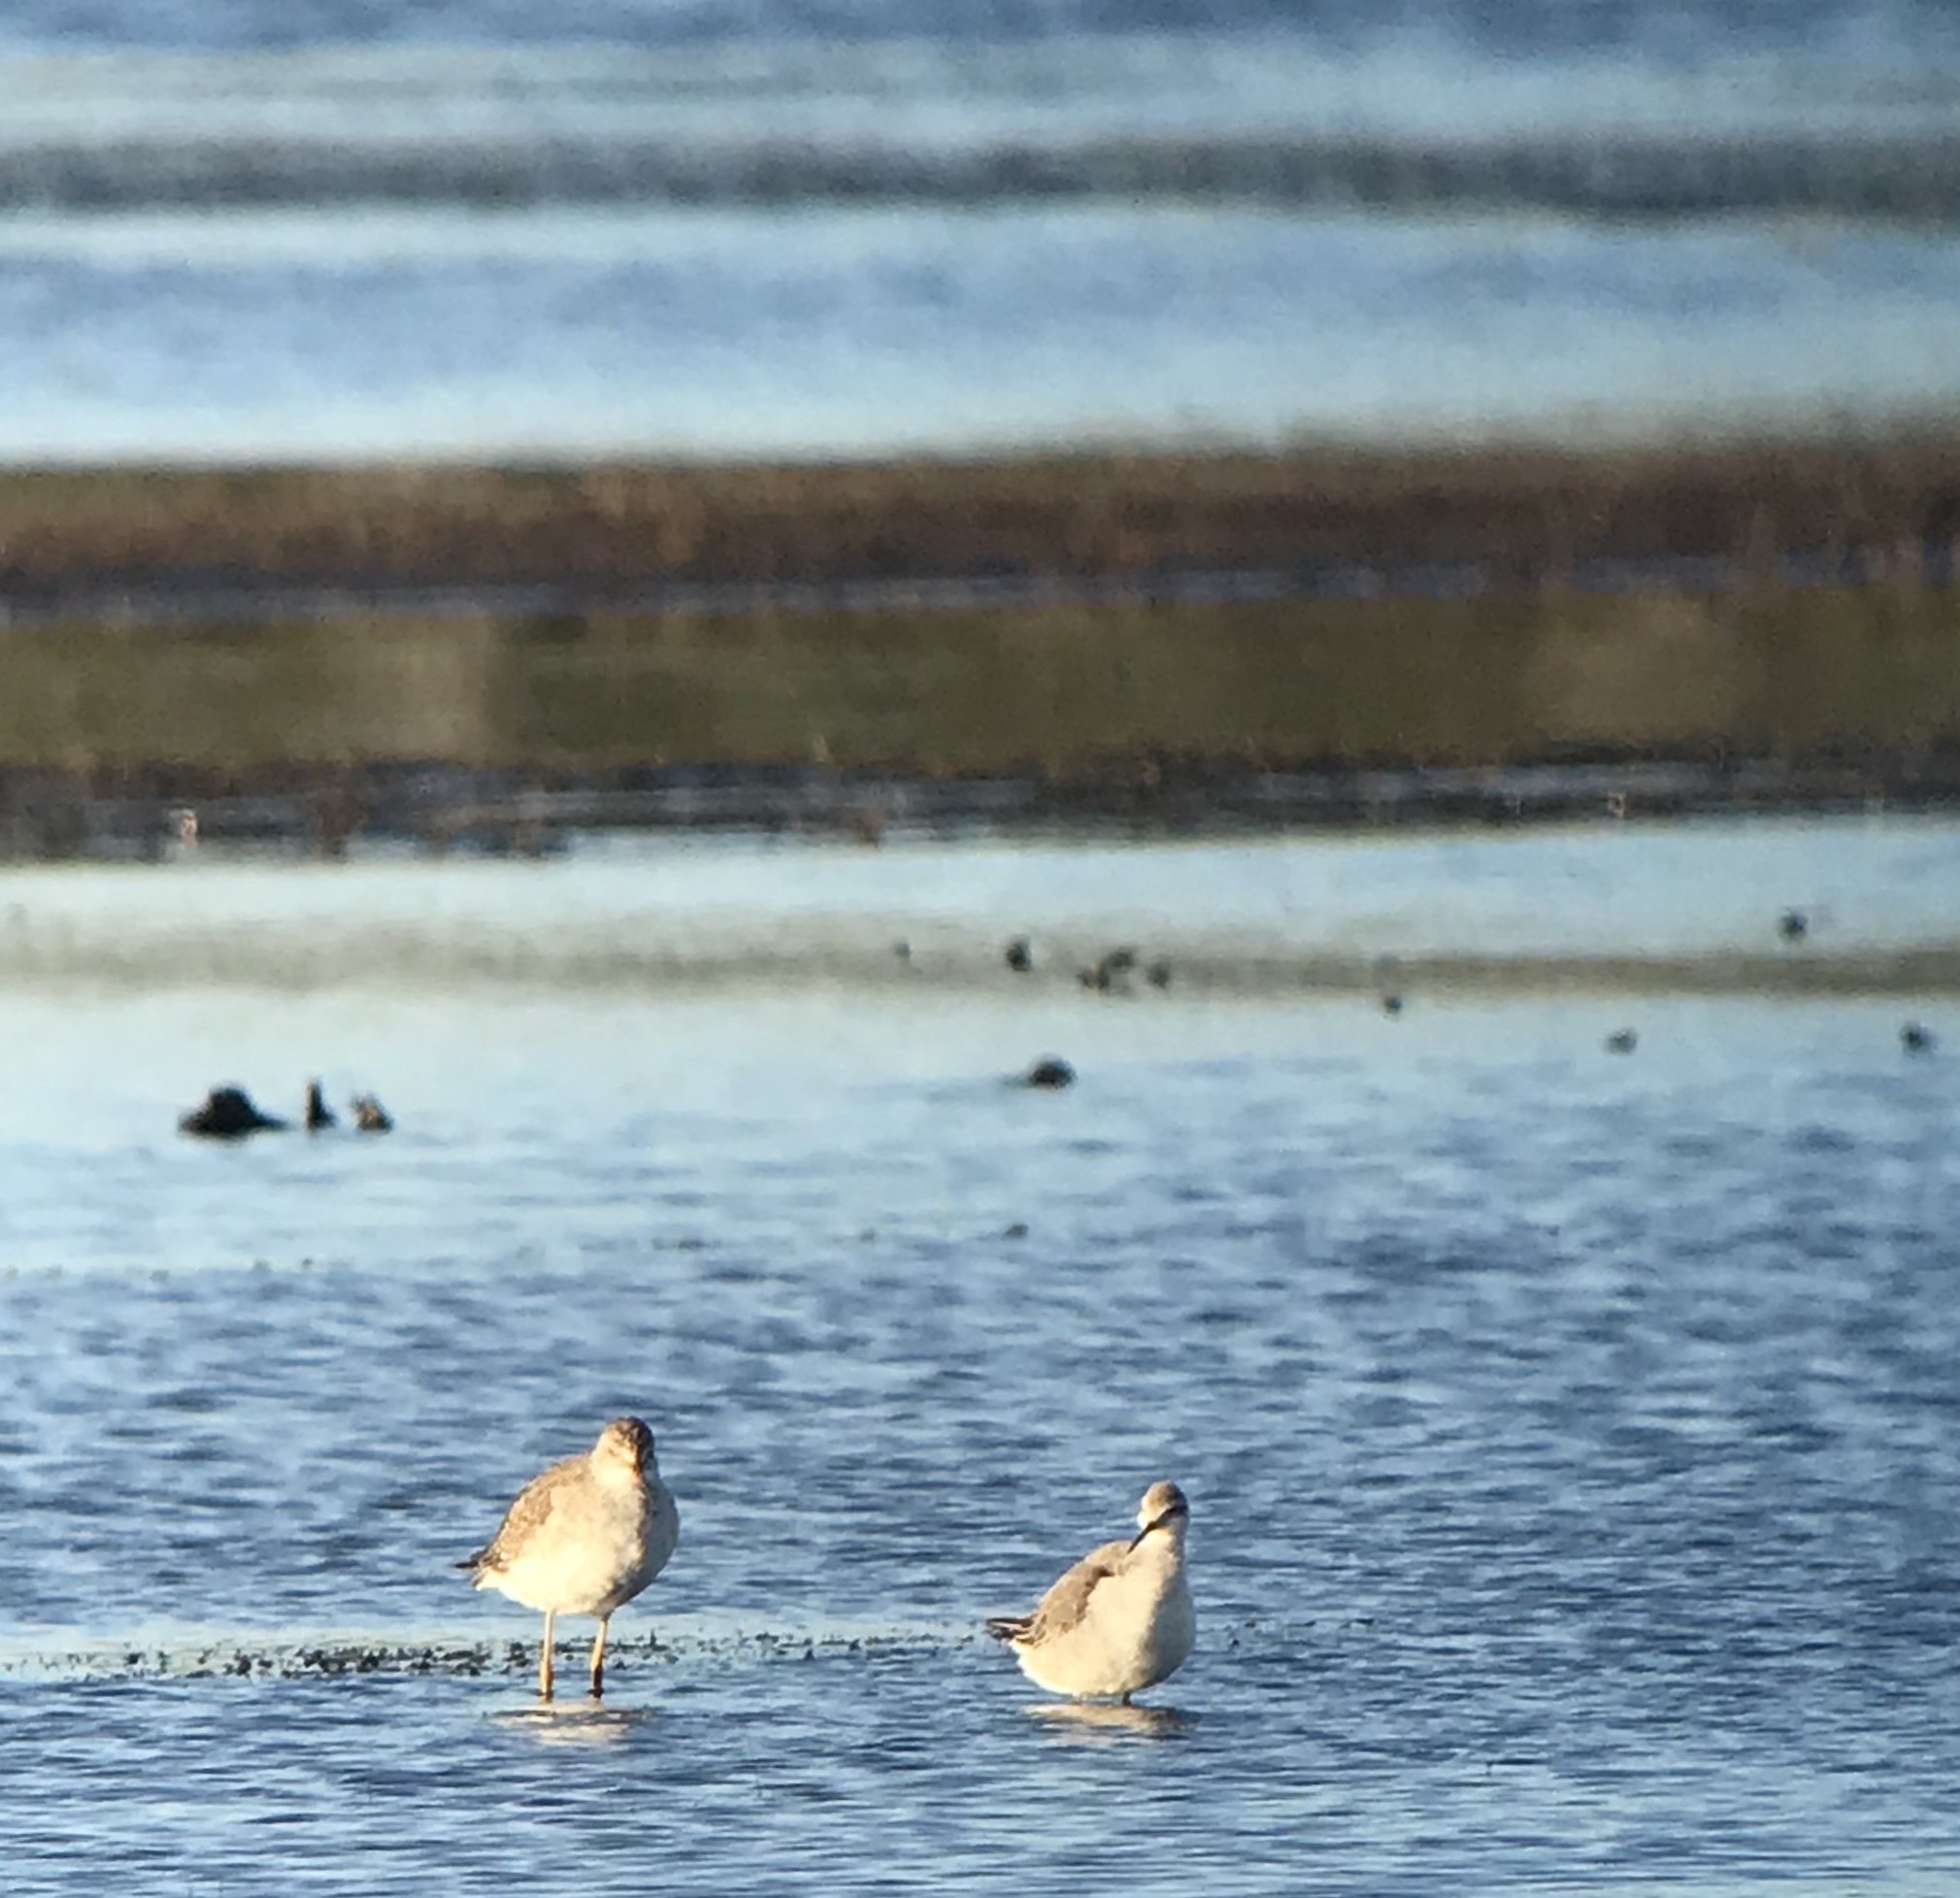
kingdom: Animalia
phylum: Chordata
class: Aves
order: Charadriiformes
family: Scolopacidae
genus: Phalaropus
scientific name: Phalaropus tricolor
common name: Wilson's phalarope
